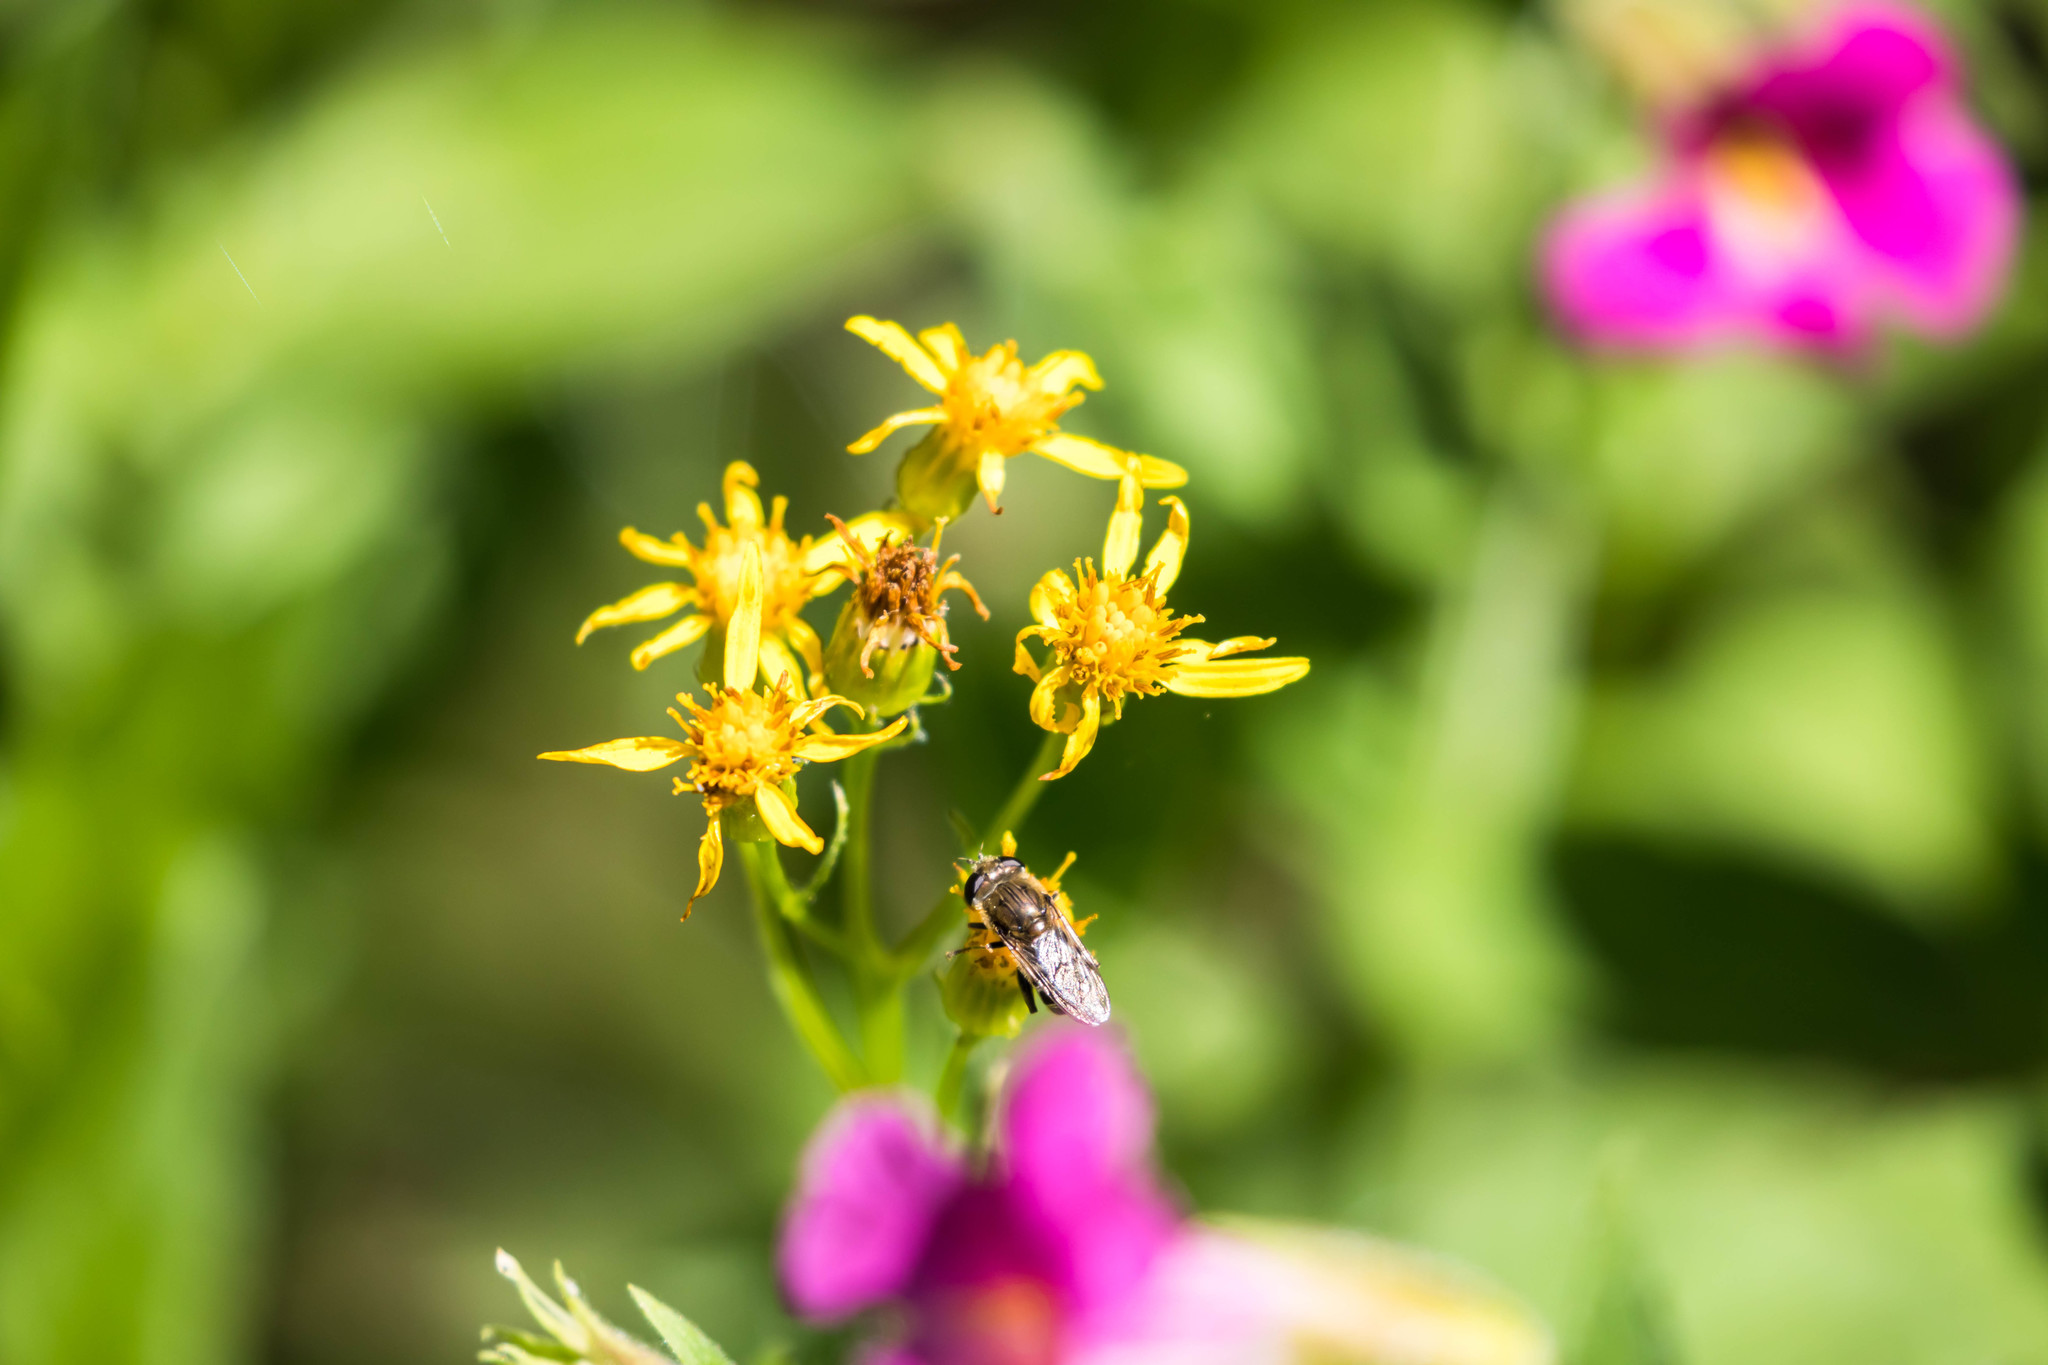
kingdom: Animalia
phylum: Arthropoda
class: Insecta
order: Diptera
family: Syrphidae
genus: Asemosyrphus
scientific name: Asemosyrphus polygrammus
